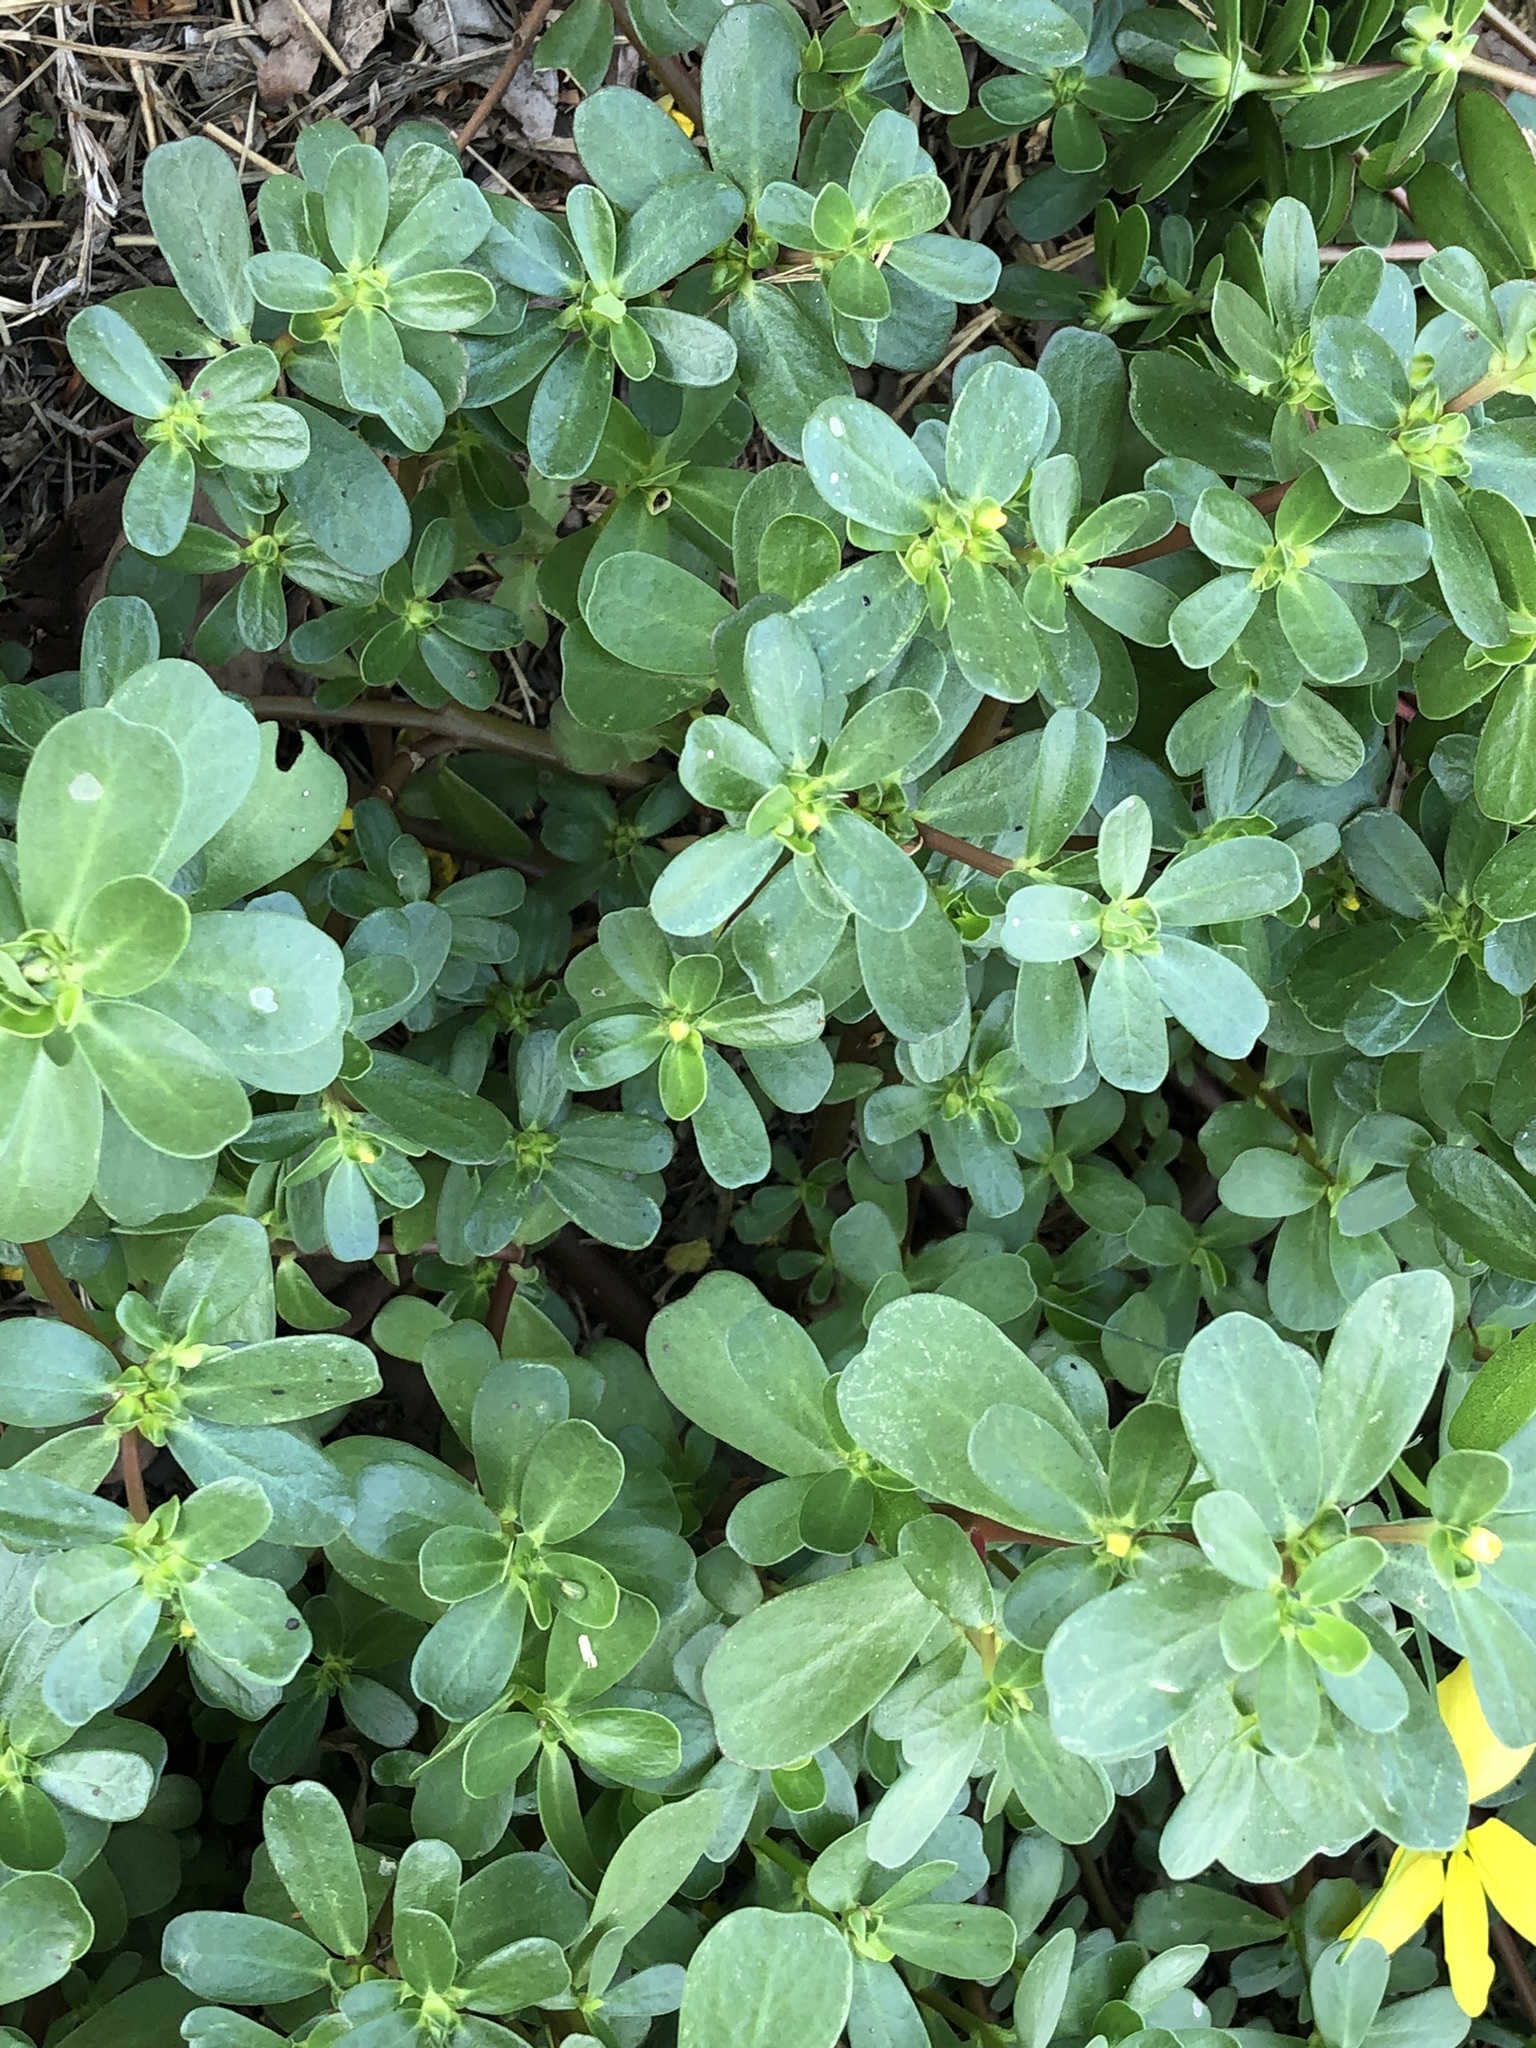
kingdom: Plantae
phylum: Tracheophyta
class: Magnoliopsida
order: Caryophyllales
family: Portulacaceae
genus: Portulaca
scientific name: Portulaca oleracea
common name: Common purslane
